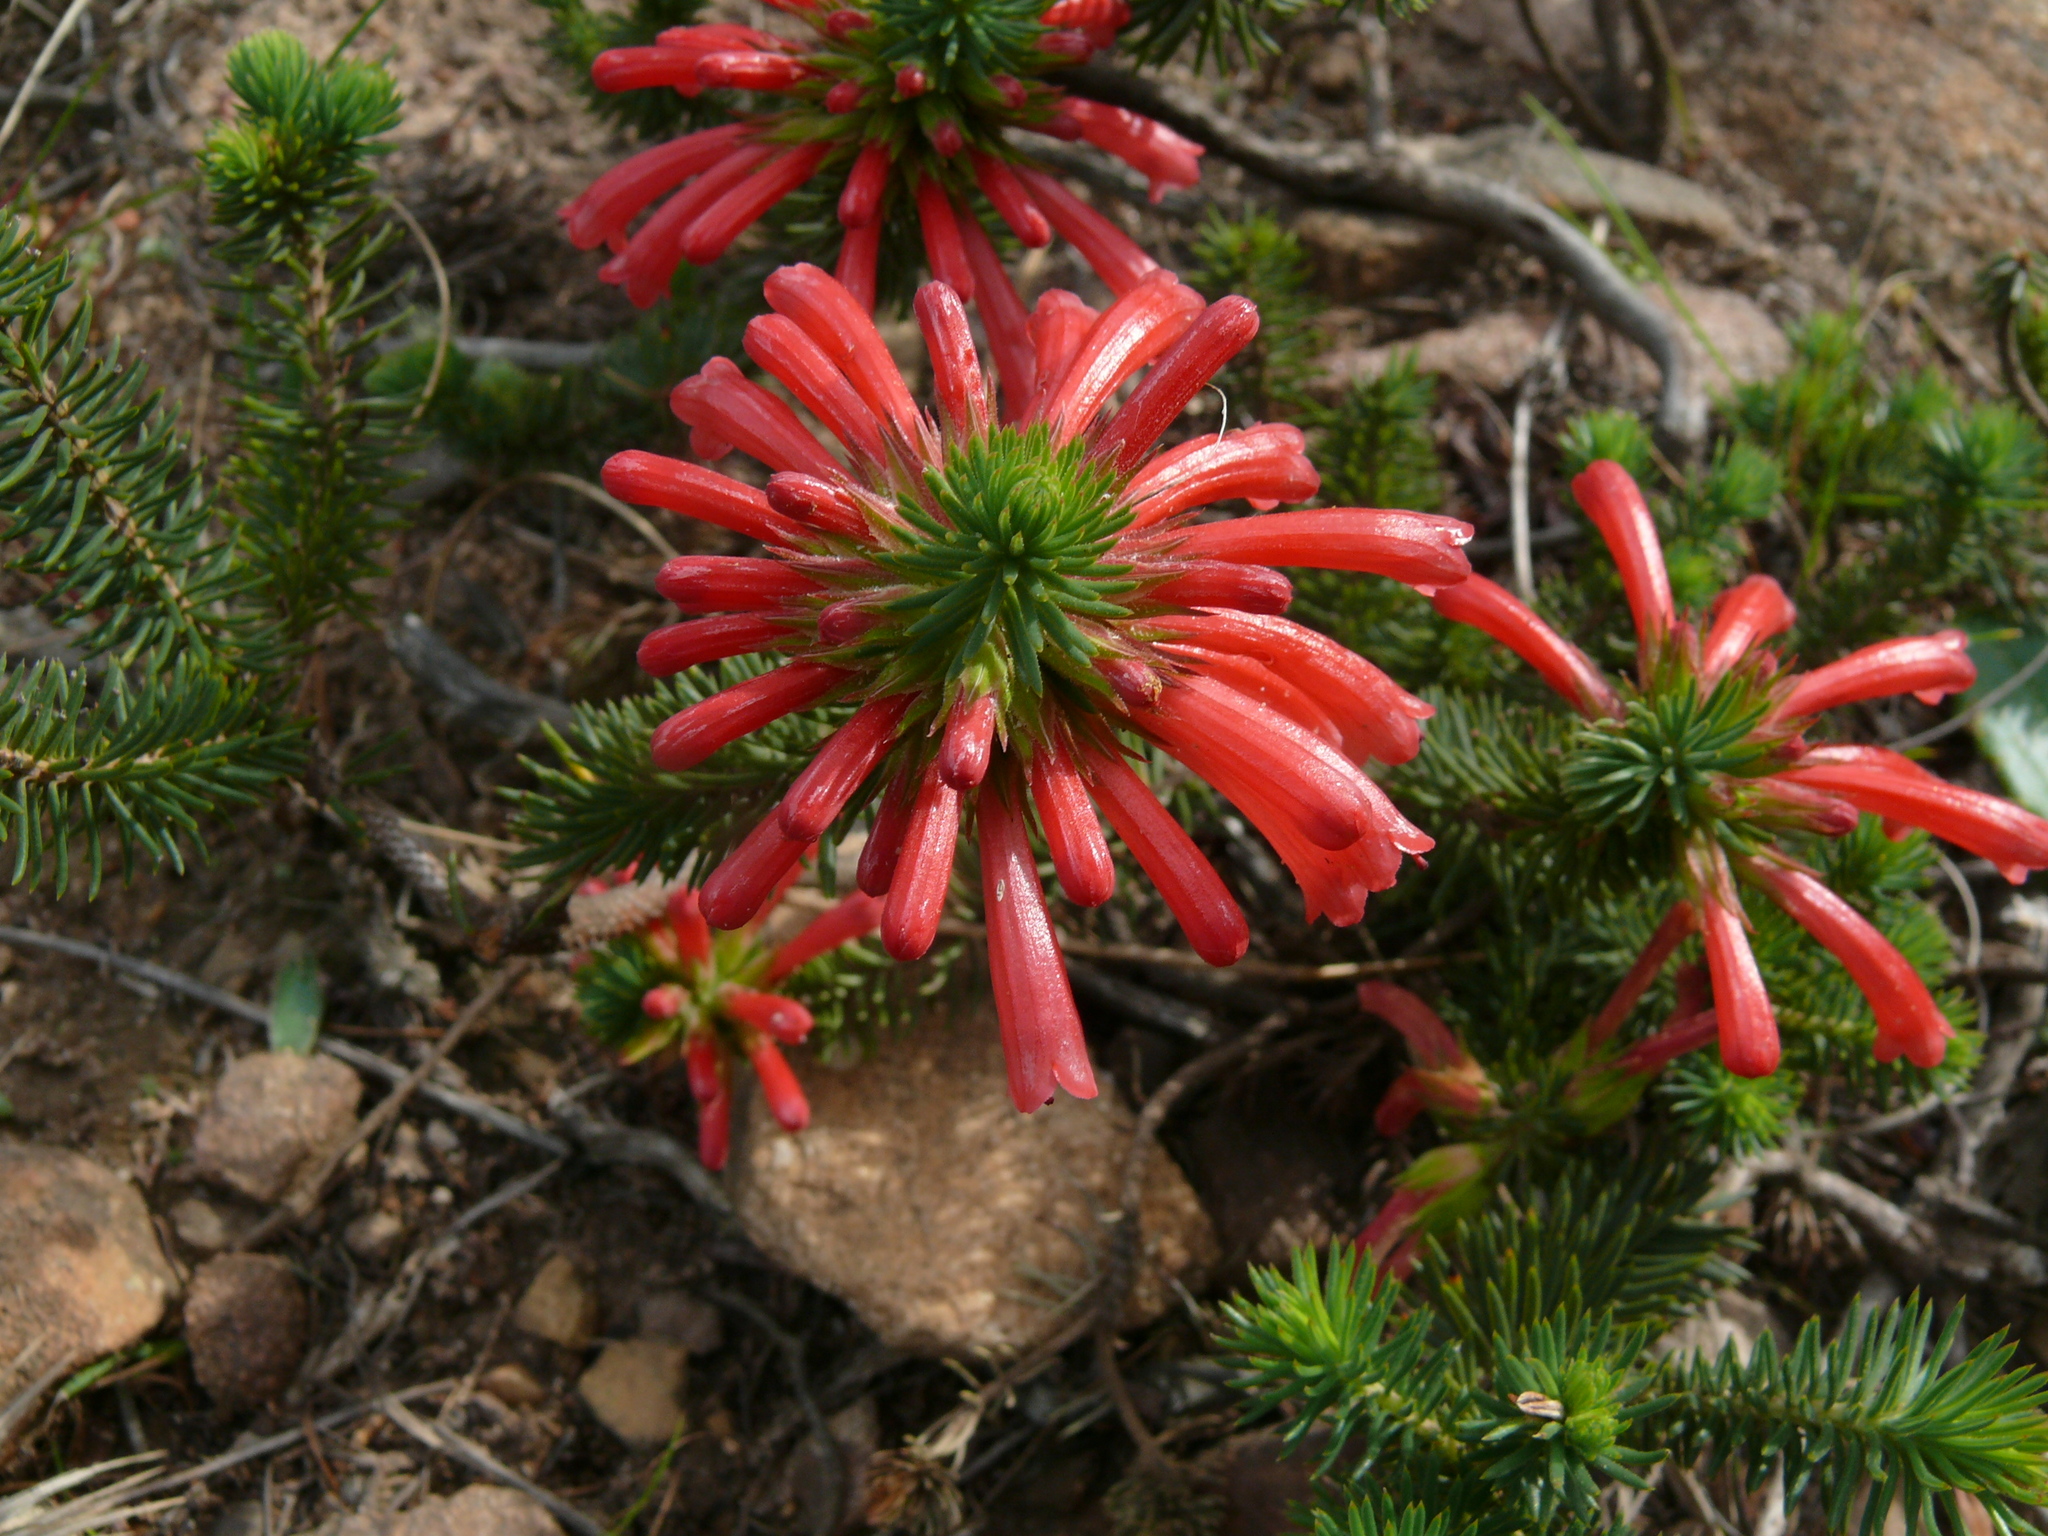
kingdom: Plantae
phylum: Tracheophyta
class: Magnoliopsida
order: Ericales
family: Ericaceae
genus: Erica
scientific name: Erica abietina
